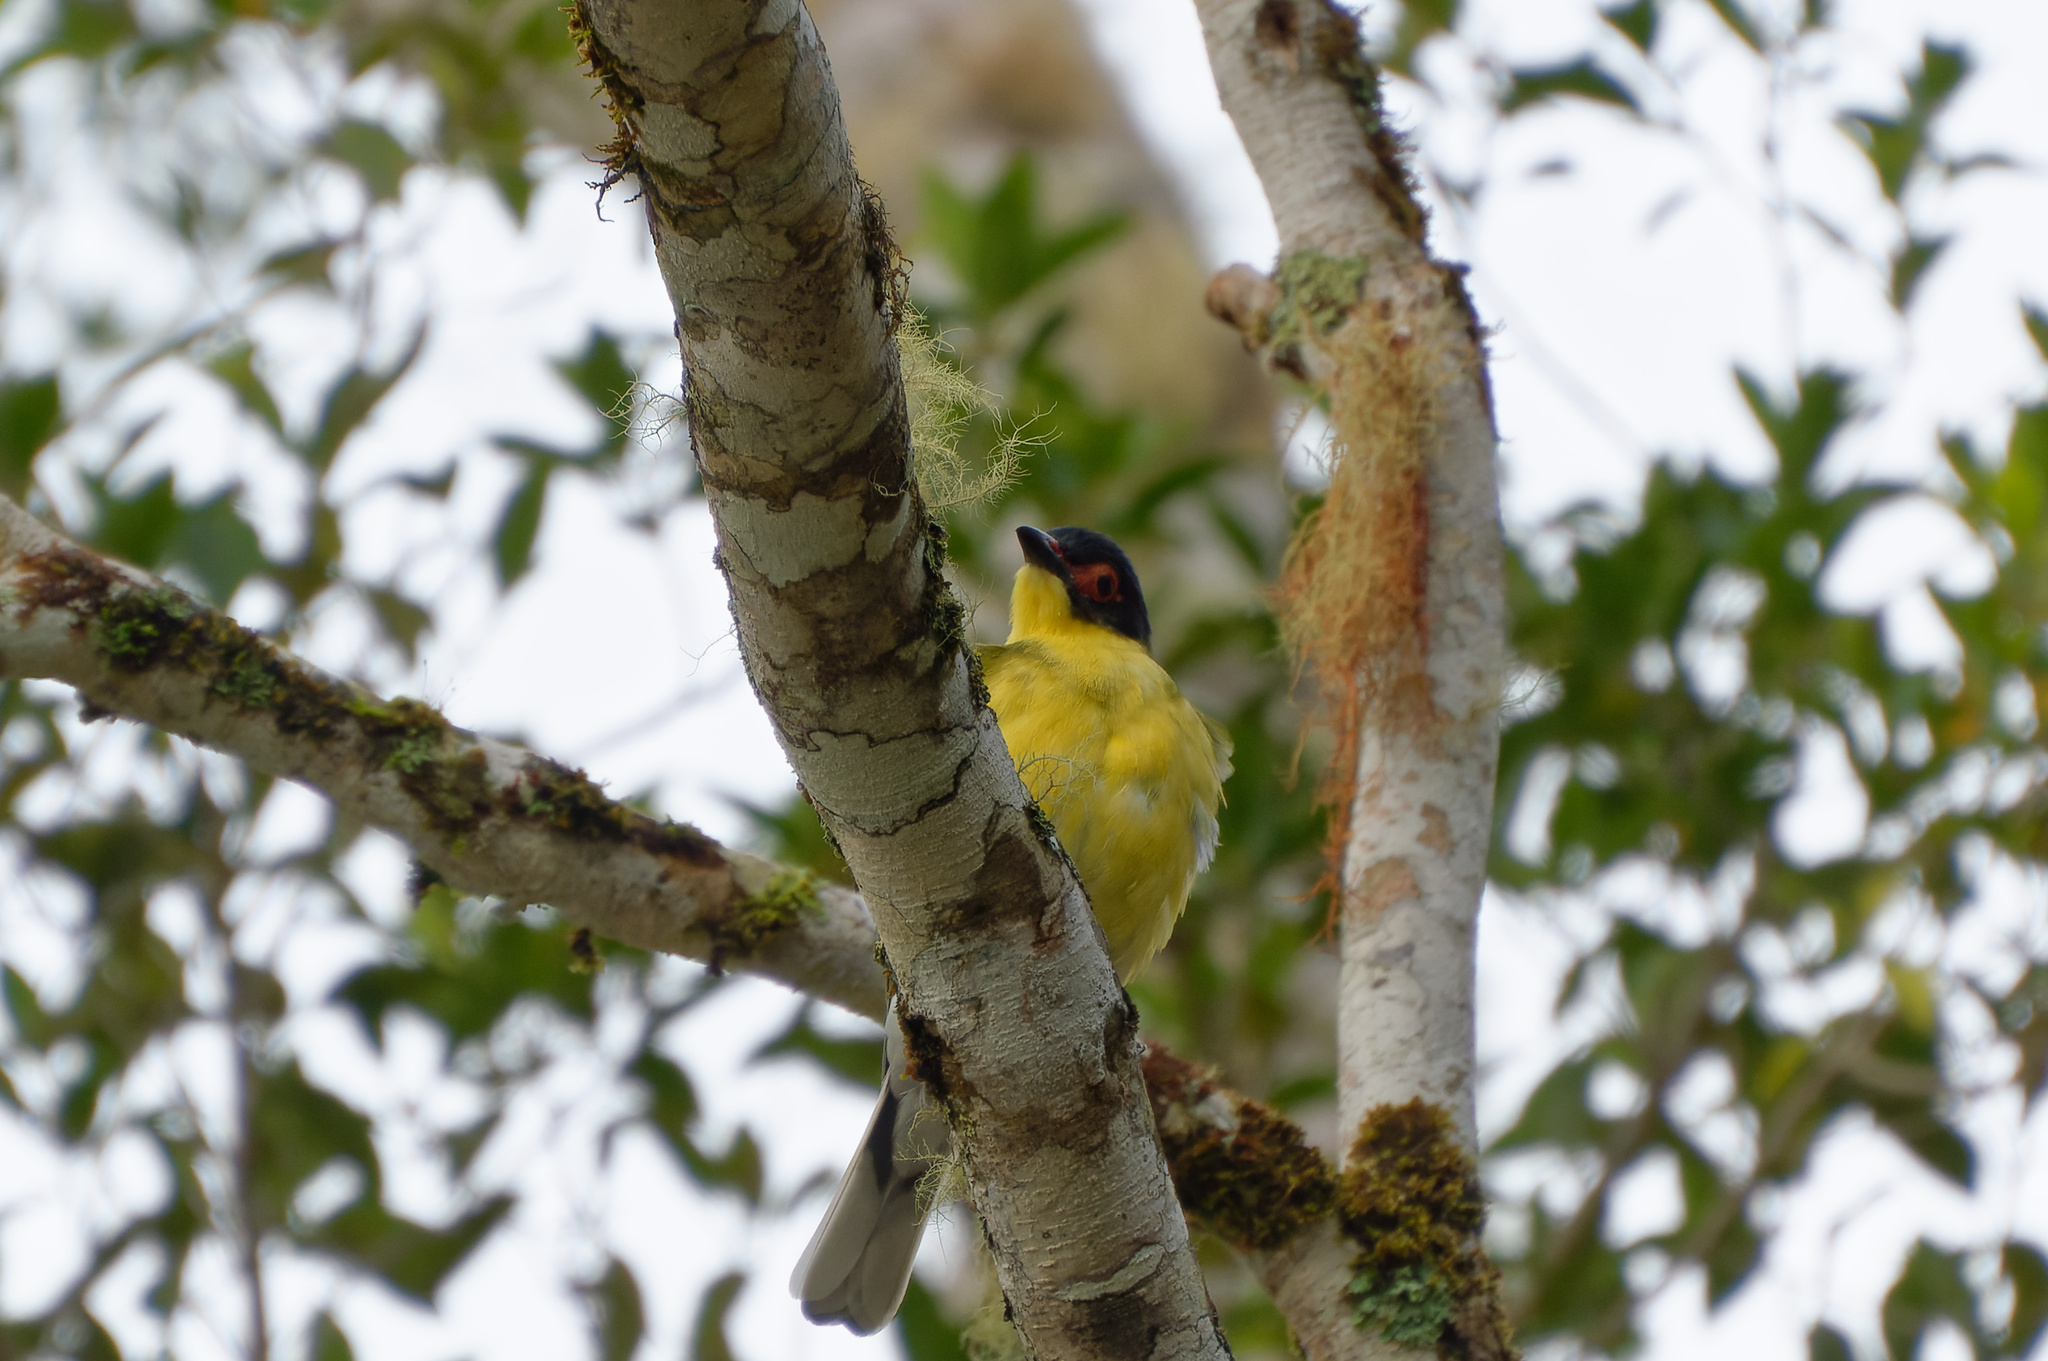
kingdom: Animalia
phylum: Chordata
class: Aves
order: Passeriformes
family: Oriolidae
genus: Sphecotheres
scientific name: Sphecotheres vieilloti
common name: Australasian figbird
